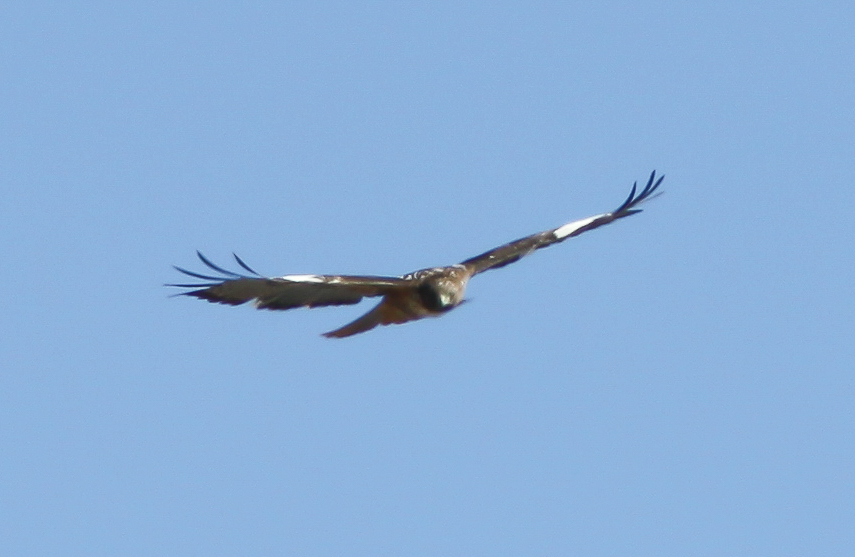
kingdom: Animalia
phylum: Chordata
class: Aves
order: Accipitriformes
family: Accipitridae
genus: Buteo
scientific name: Buteo jamaicensis
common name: Red-tailed hawk
